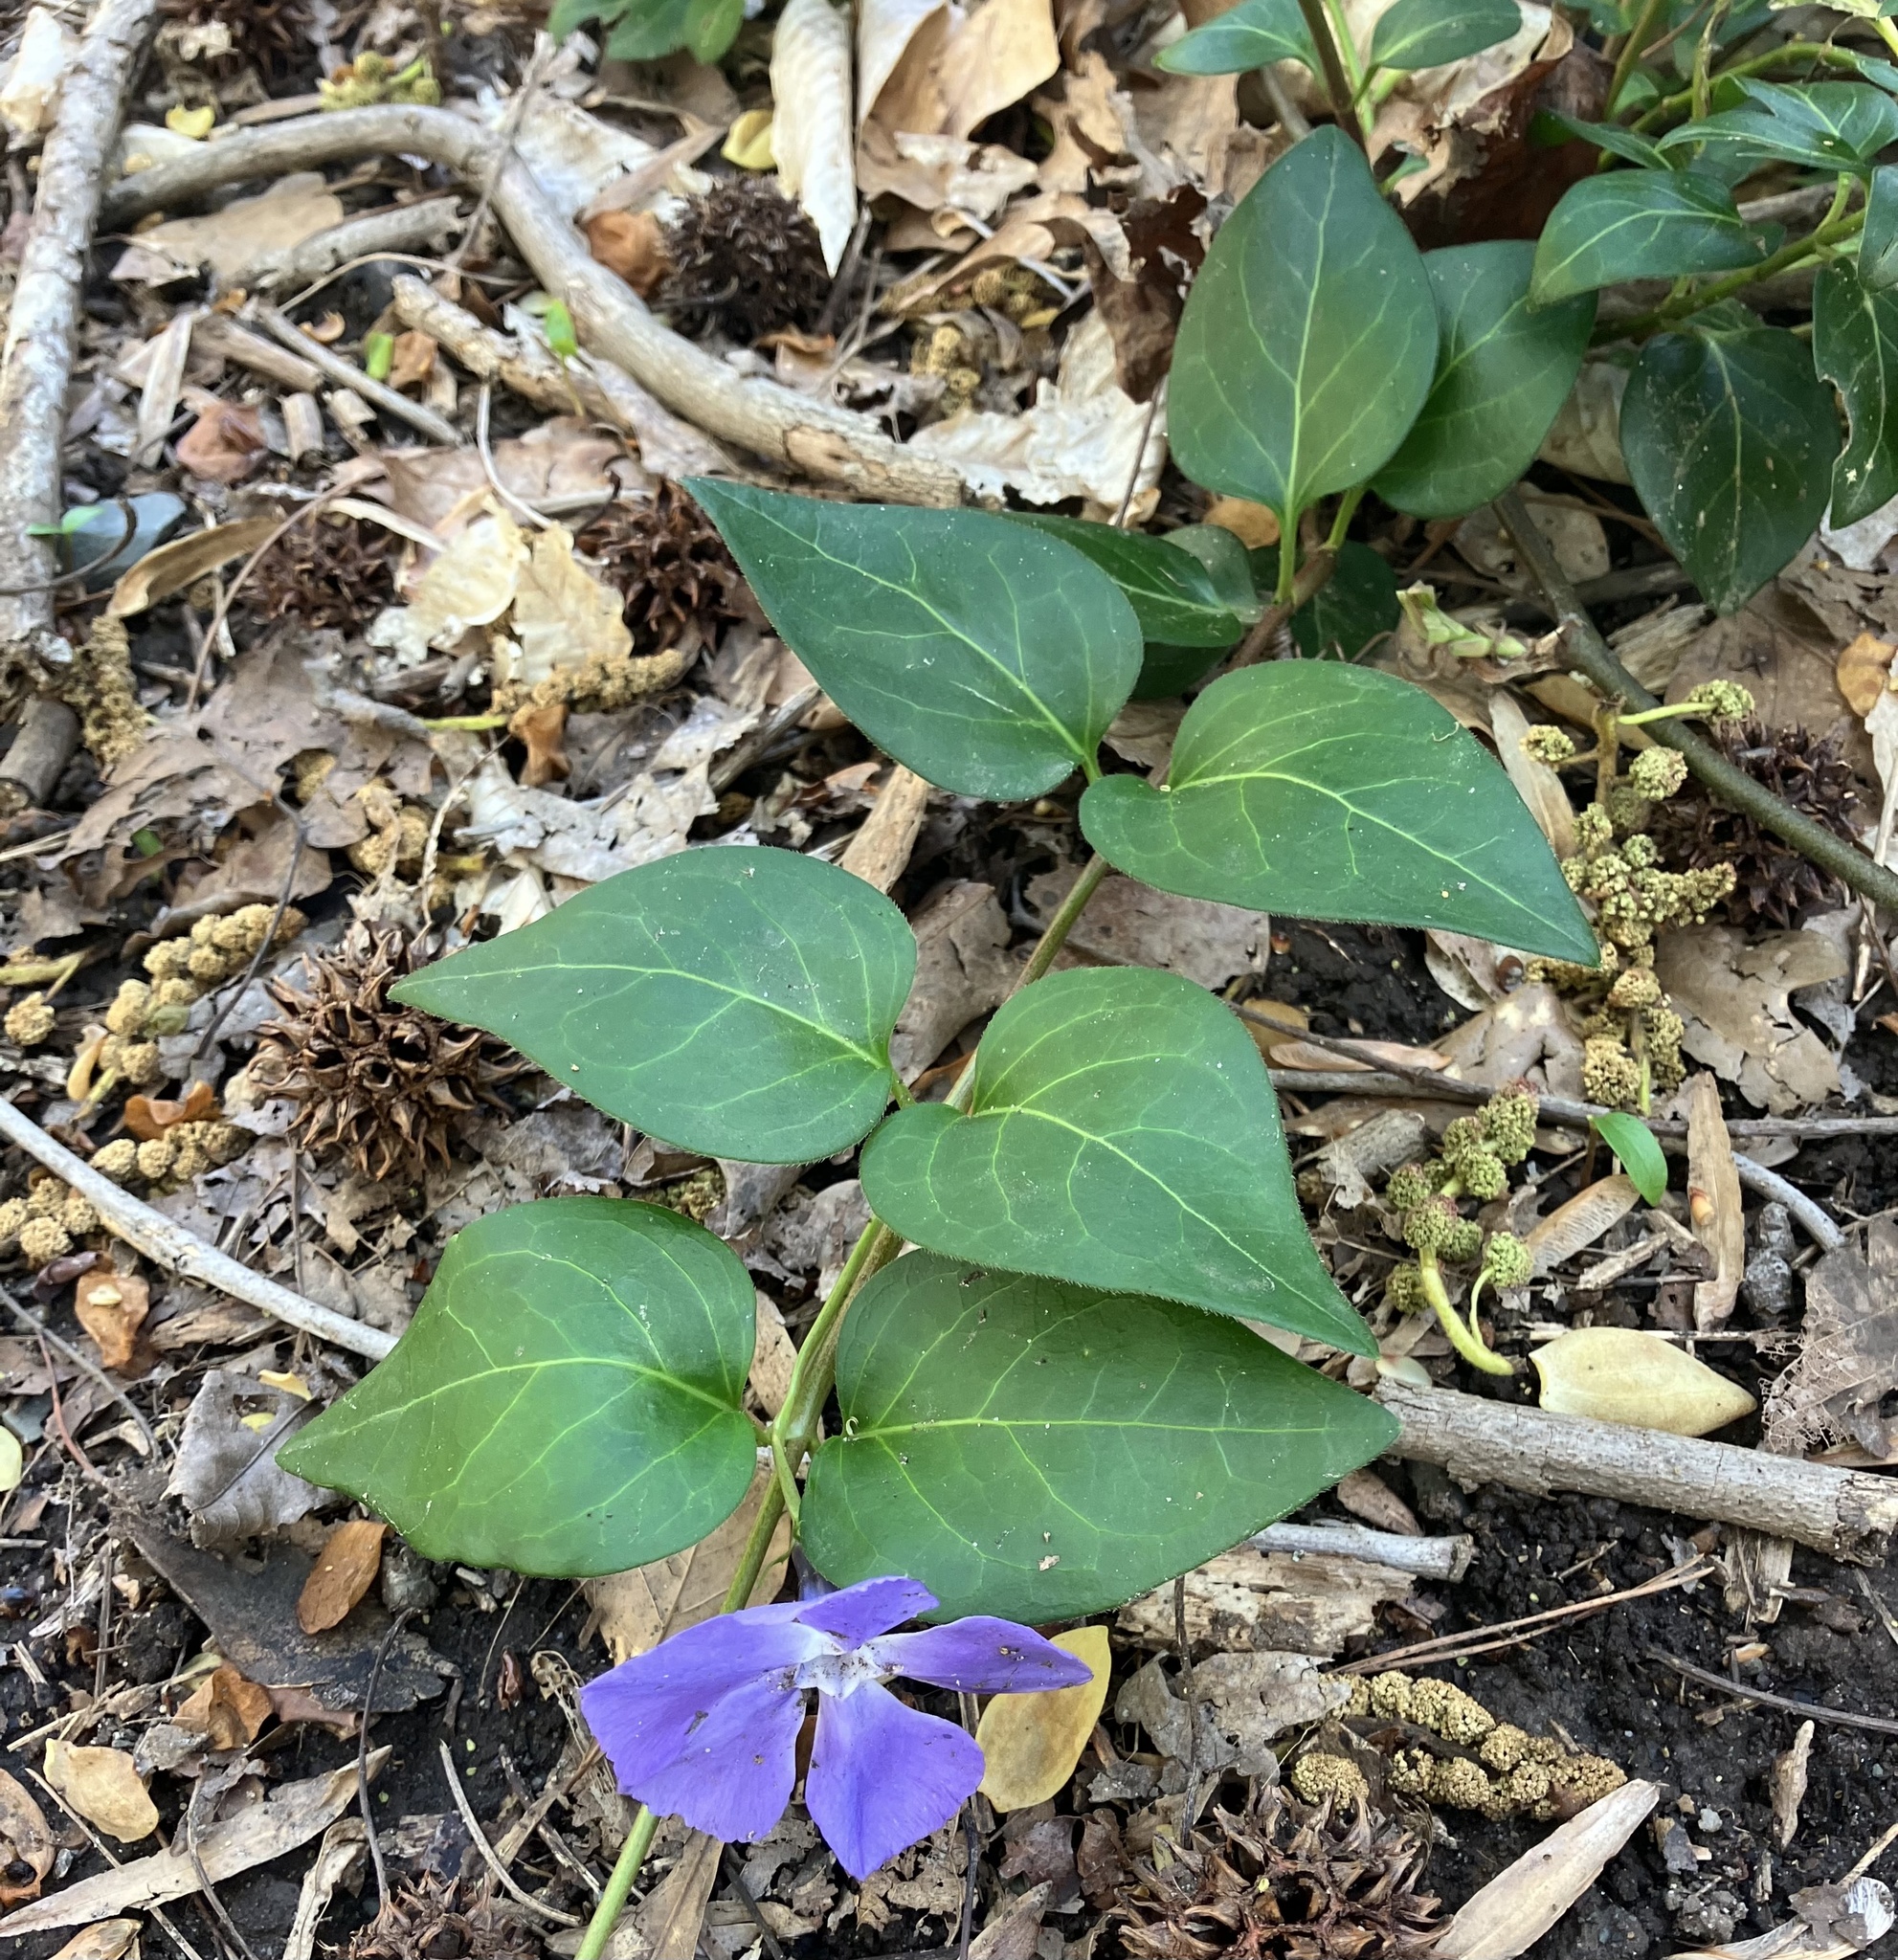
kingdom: Plantae
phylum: Tracheophyta
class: Magnoliopsida
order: Gentianales
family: Apocynaceae
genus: Vinca
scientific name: Vinca major
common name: Greater periwinkle
